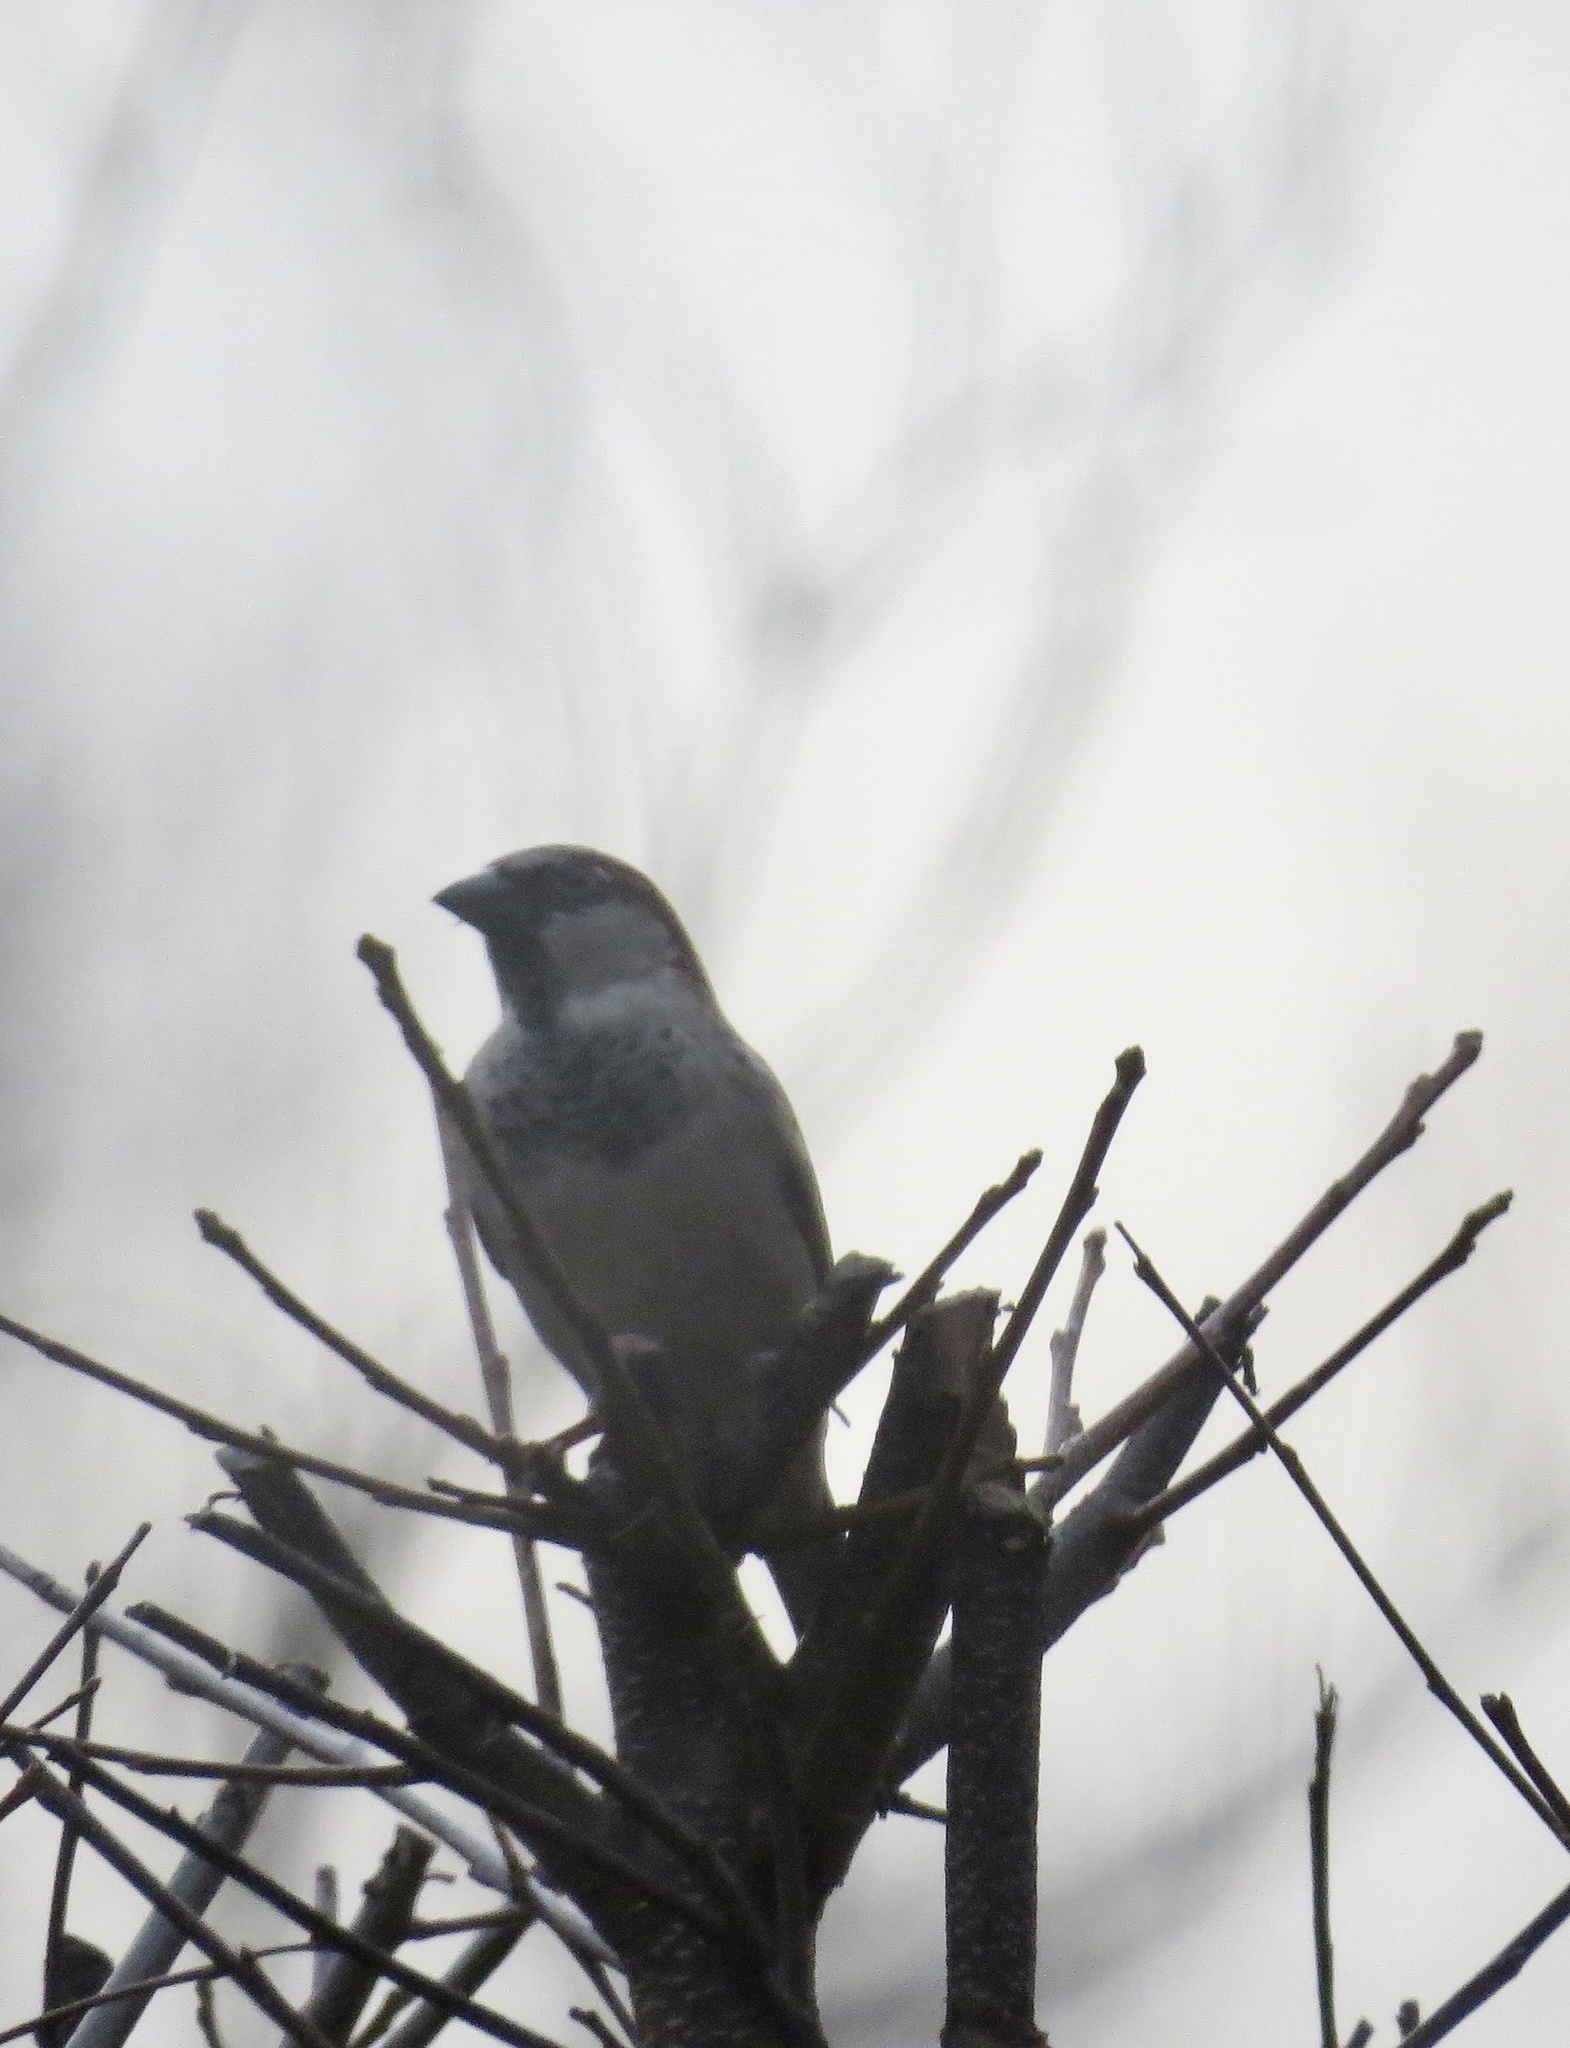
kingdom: Animalia
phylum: Chordata
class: Aves
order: Passeriformes
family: Passeridae
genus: Passer
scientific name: Passer domesticus
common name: House sparrow
